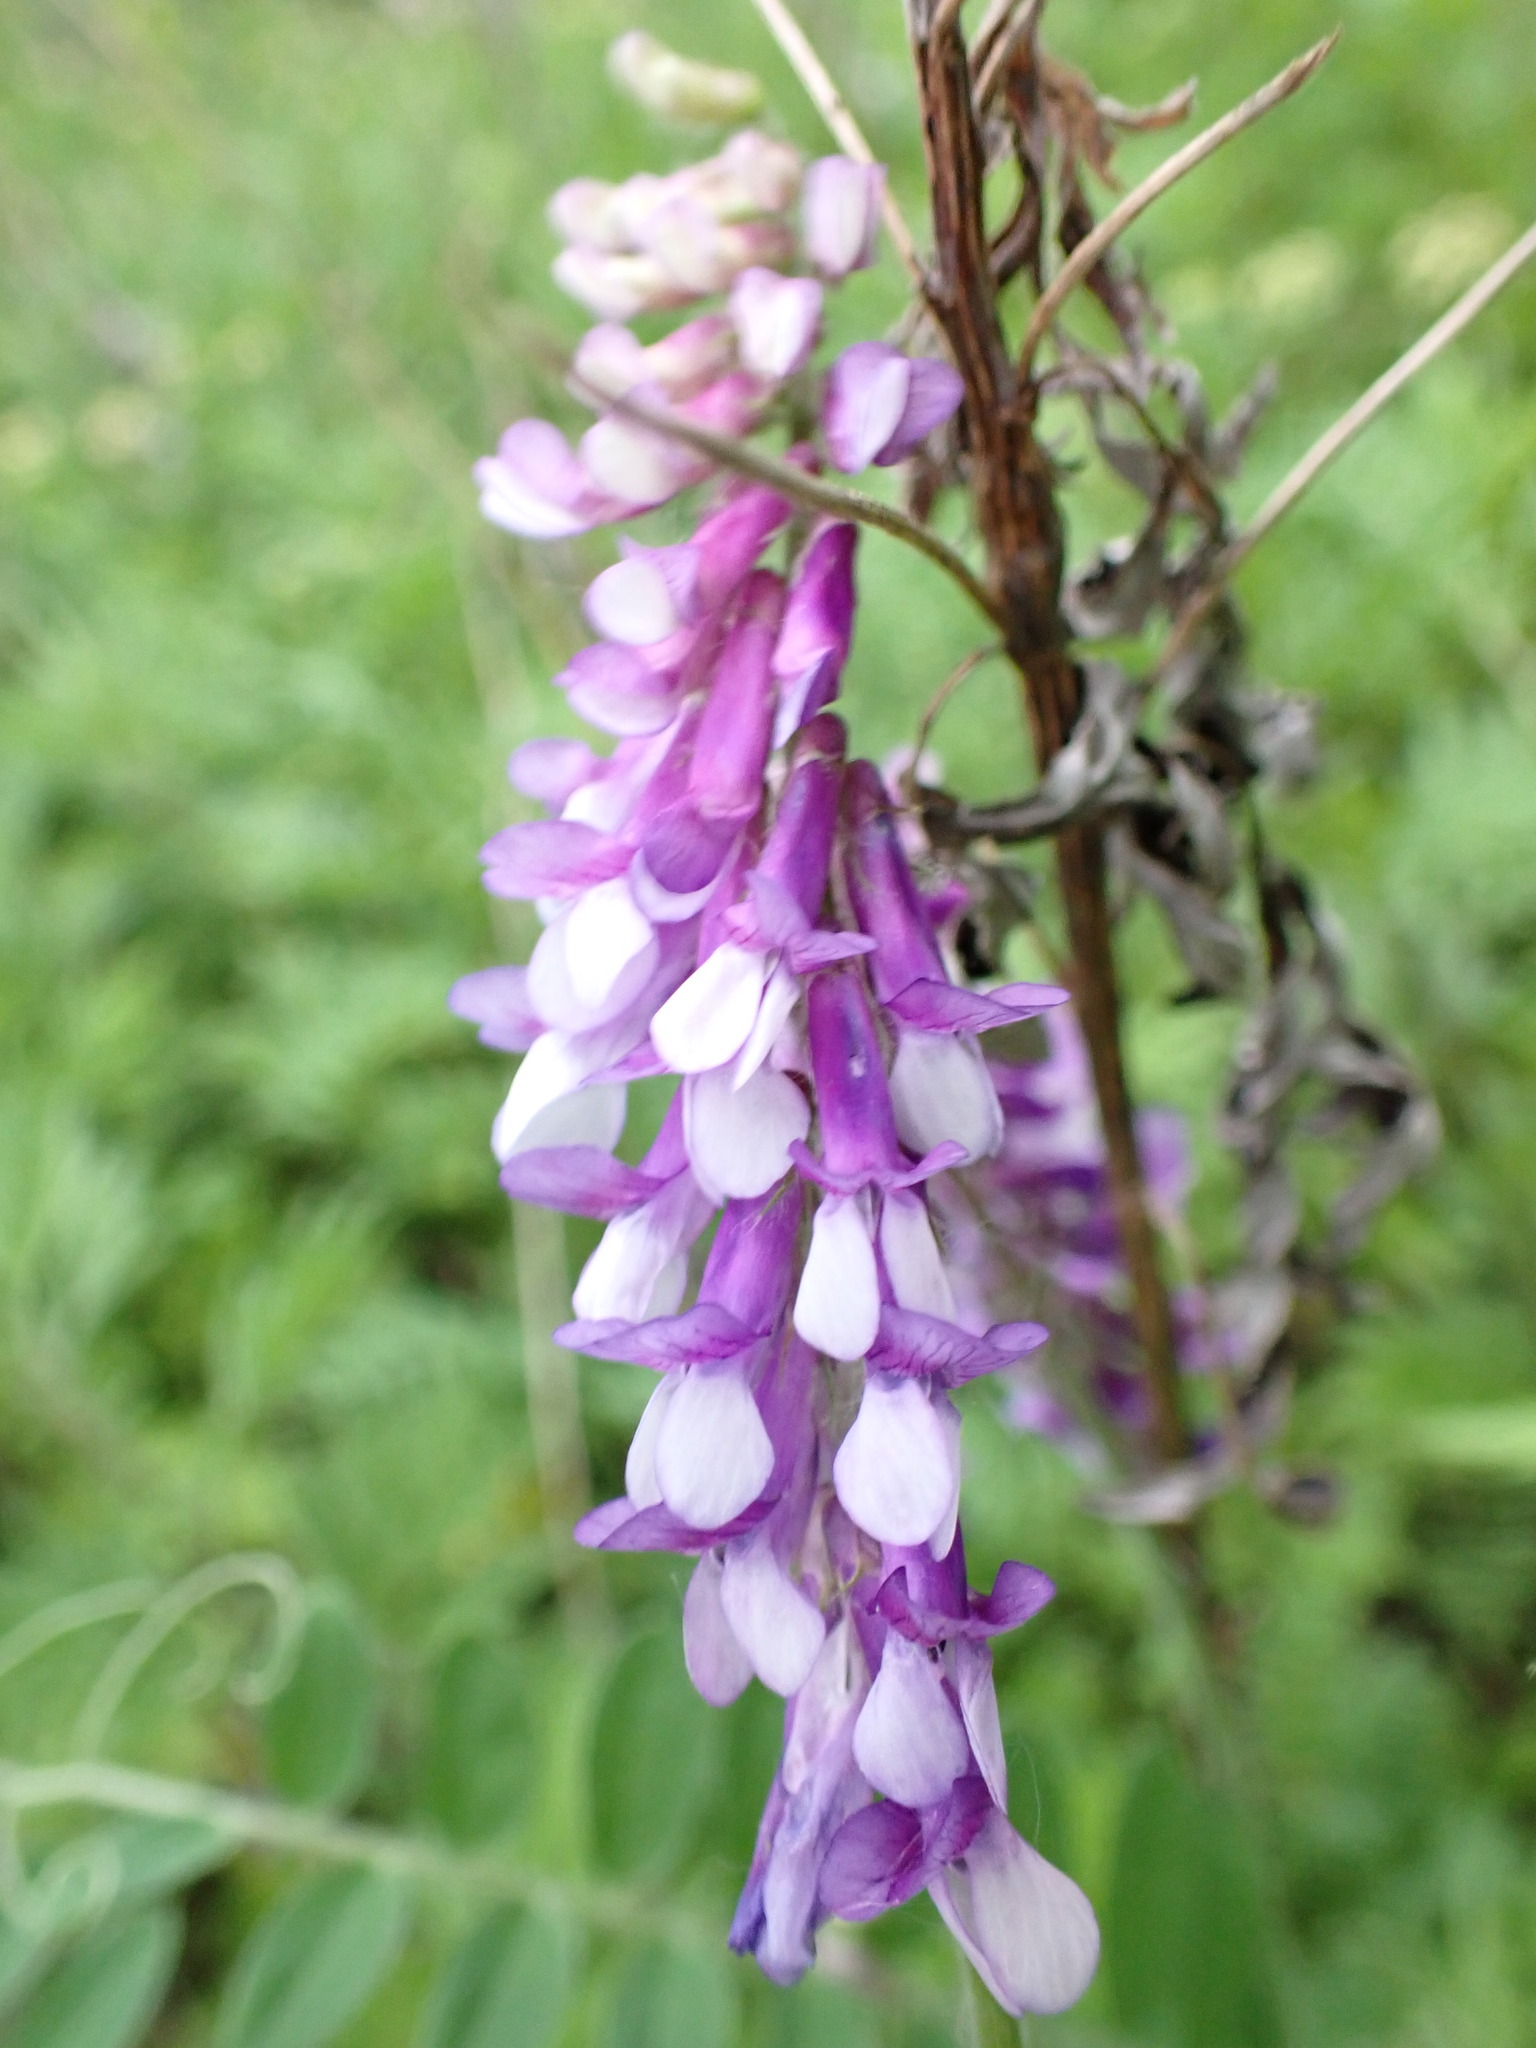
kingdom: Plantae
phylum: Tracheophyta
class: Magnoliopsida
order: Fabales
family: Fabaceae
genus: Vicia
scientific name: Vicia villosa
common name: Fodder vetch
